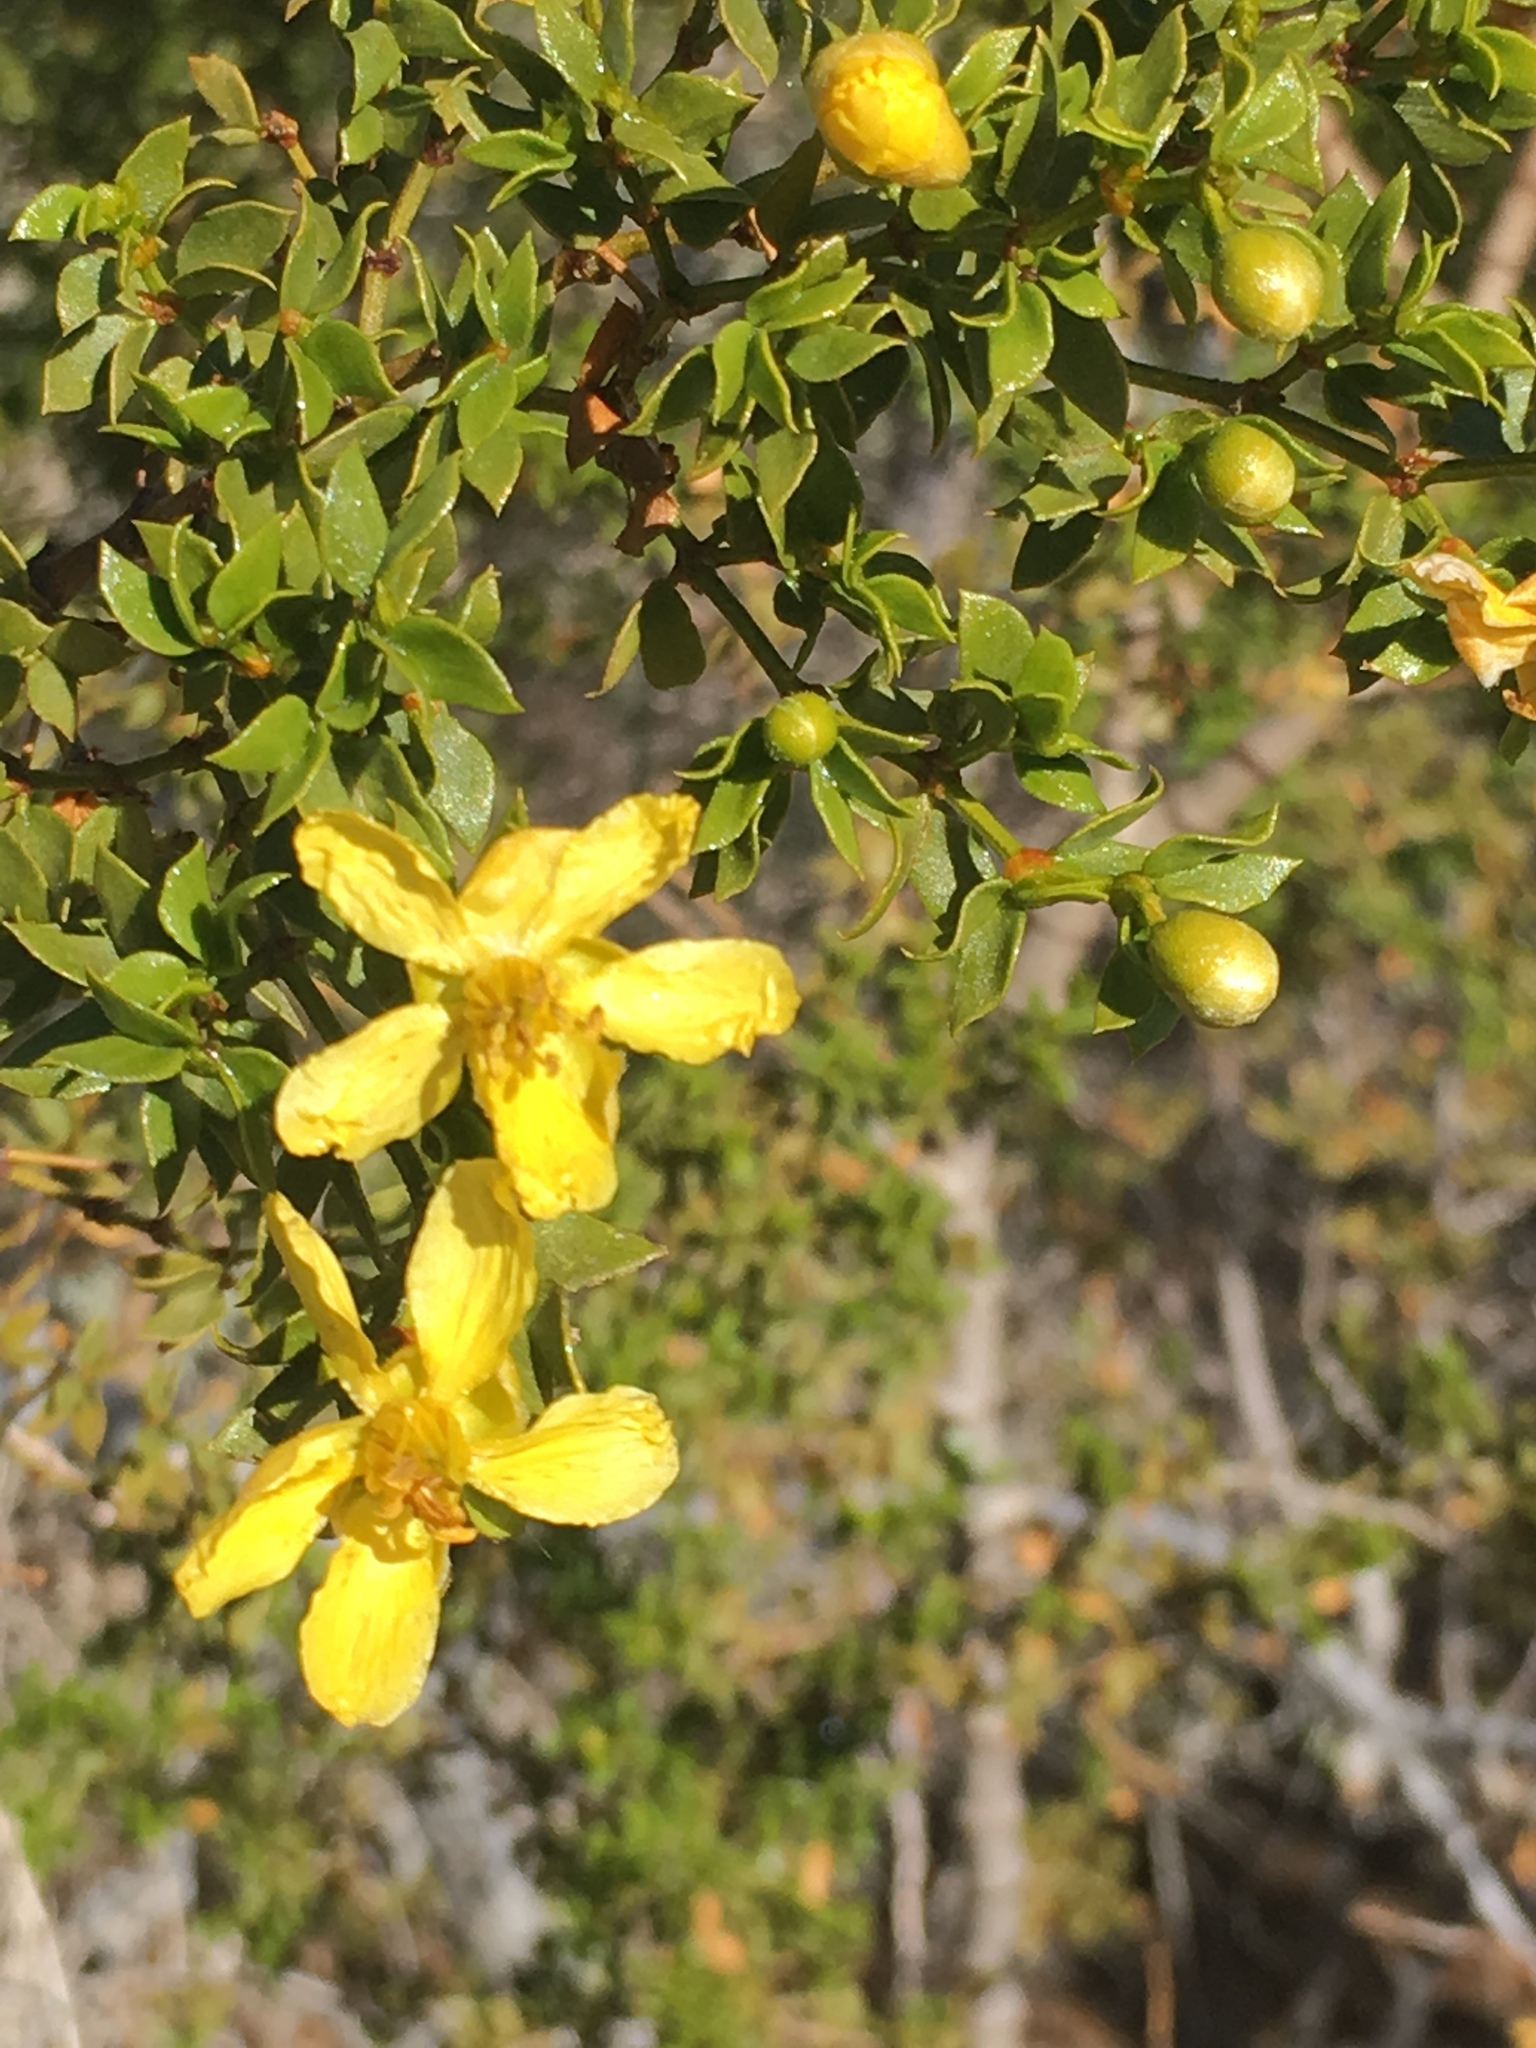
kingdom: Plantae
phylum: Tracheophyta
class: Magnoliopsida
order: Zygophyllales
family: Zygophyllaceae
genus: Larrea
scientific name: Larrea tridentata
